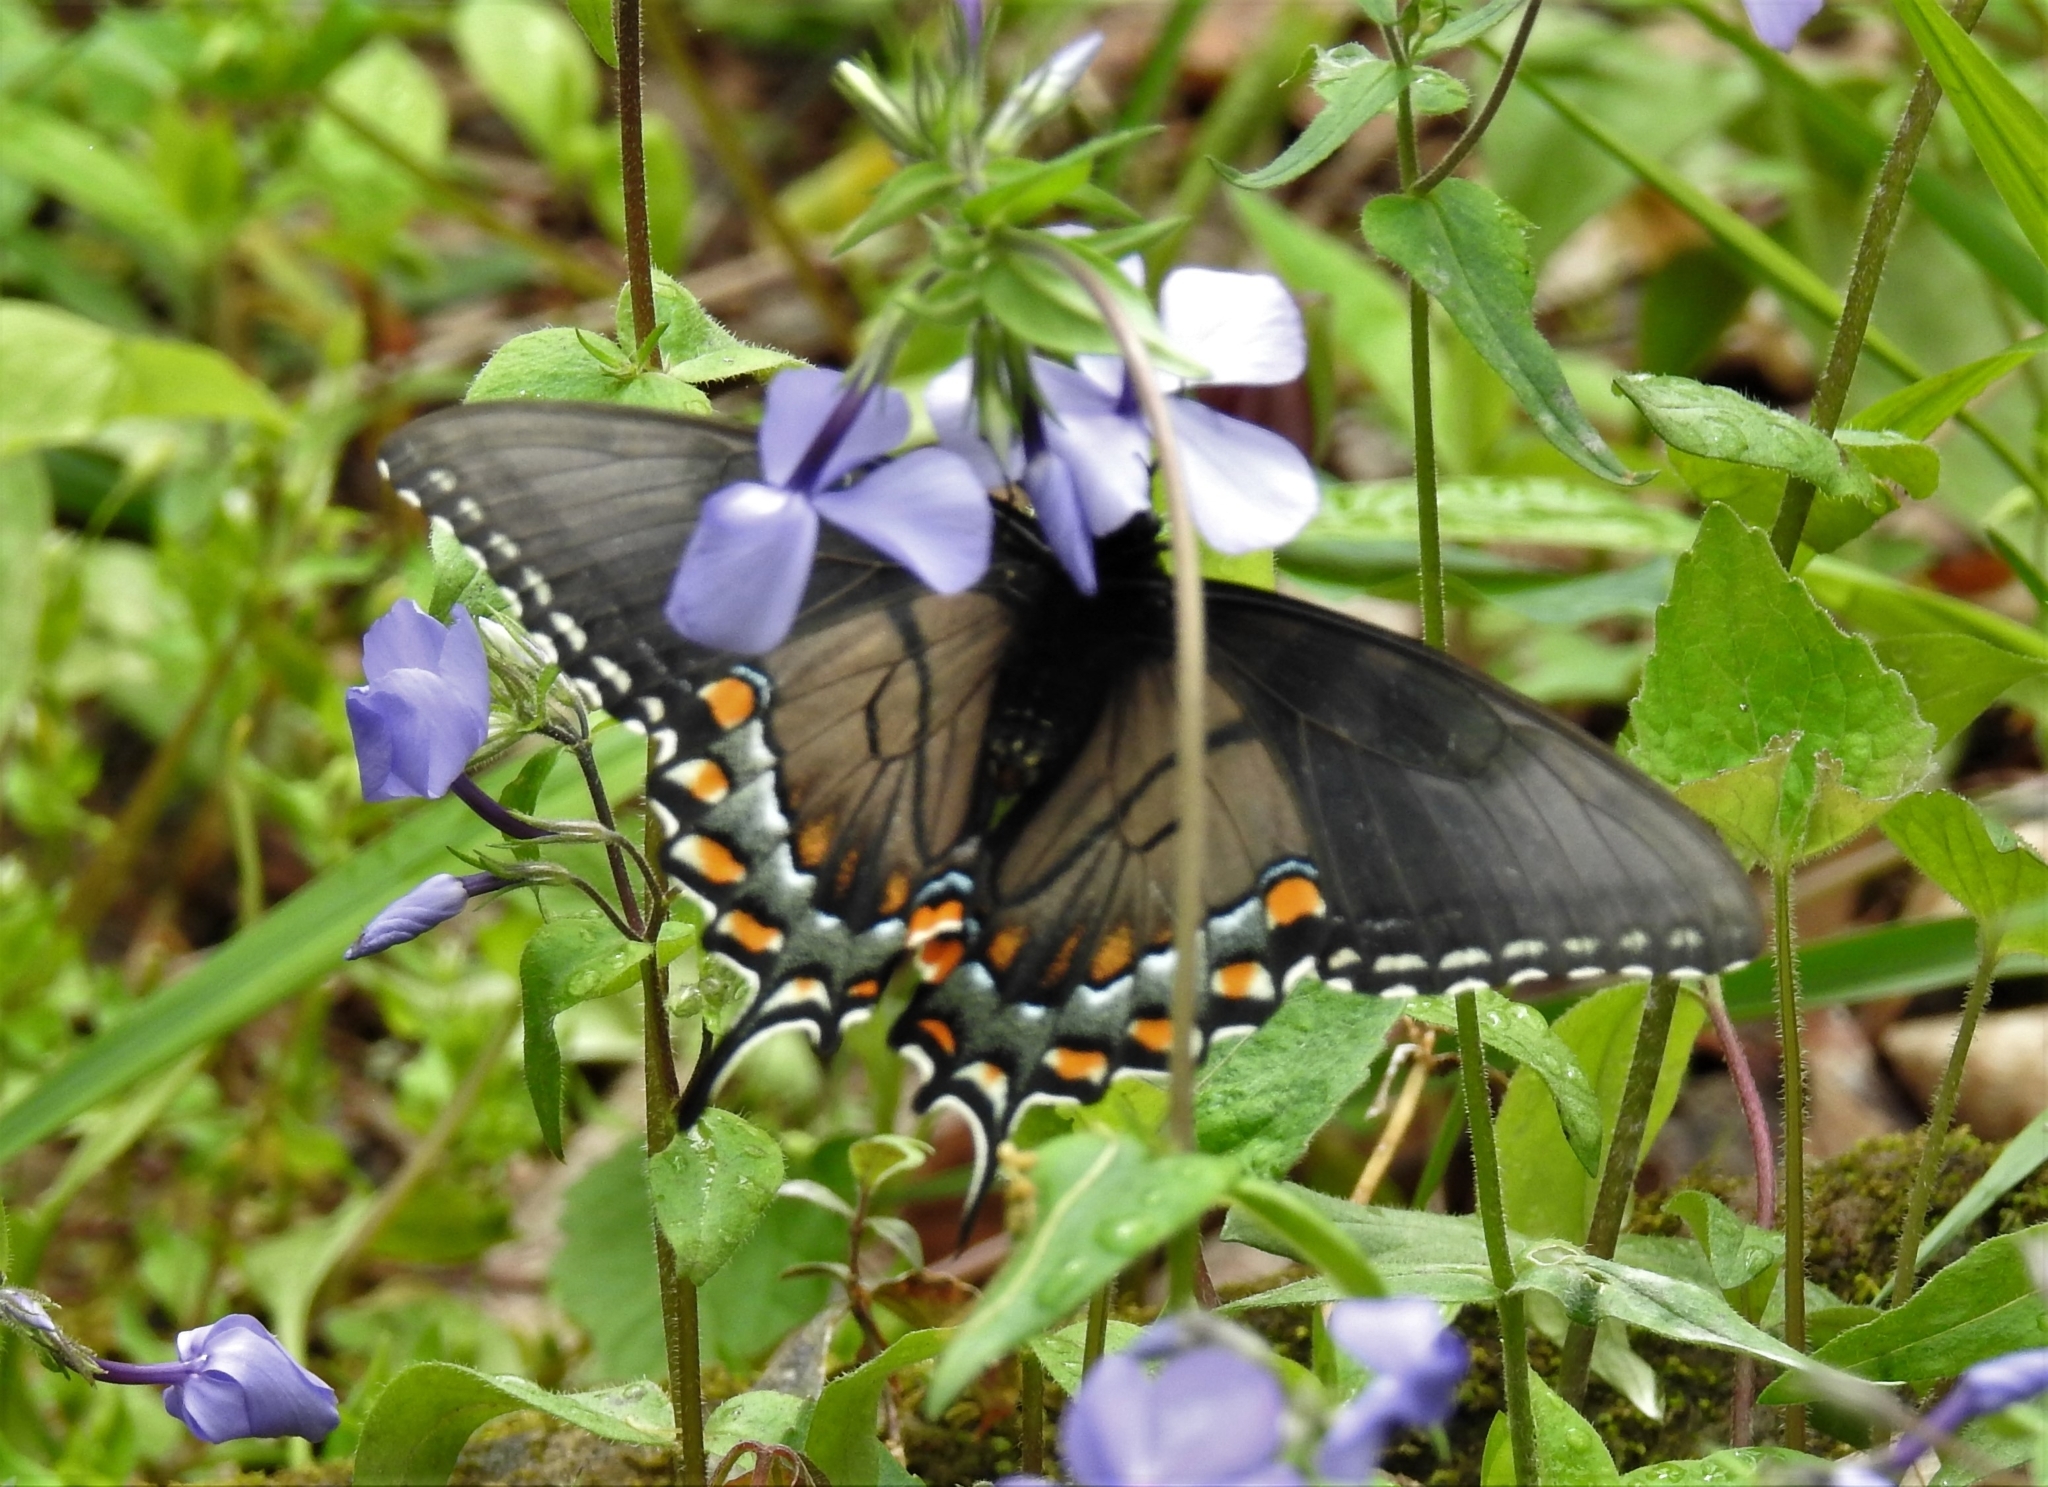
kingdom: Animalia
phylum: Arthropoda
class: Insecta
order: Lepidoptera
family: Papilionidae
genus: Papilio
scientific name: Papilio glaucus
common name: Tiger swallowtail
